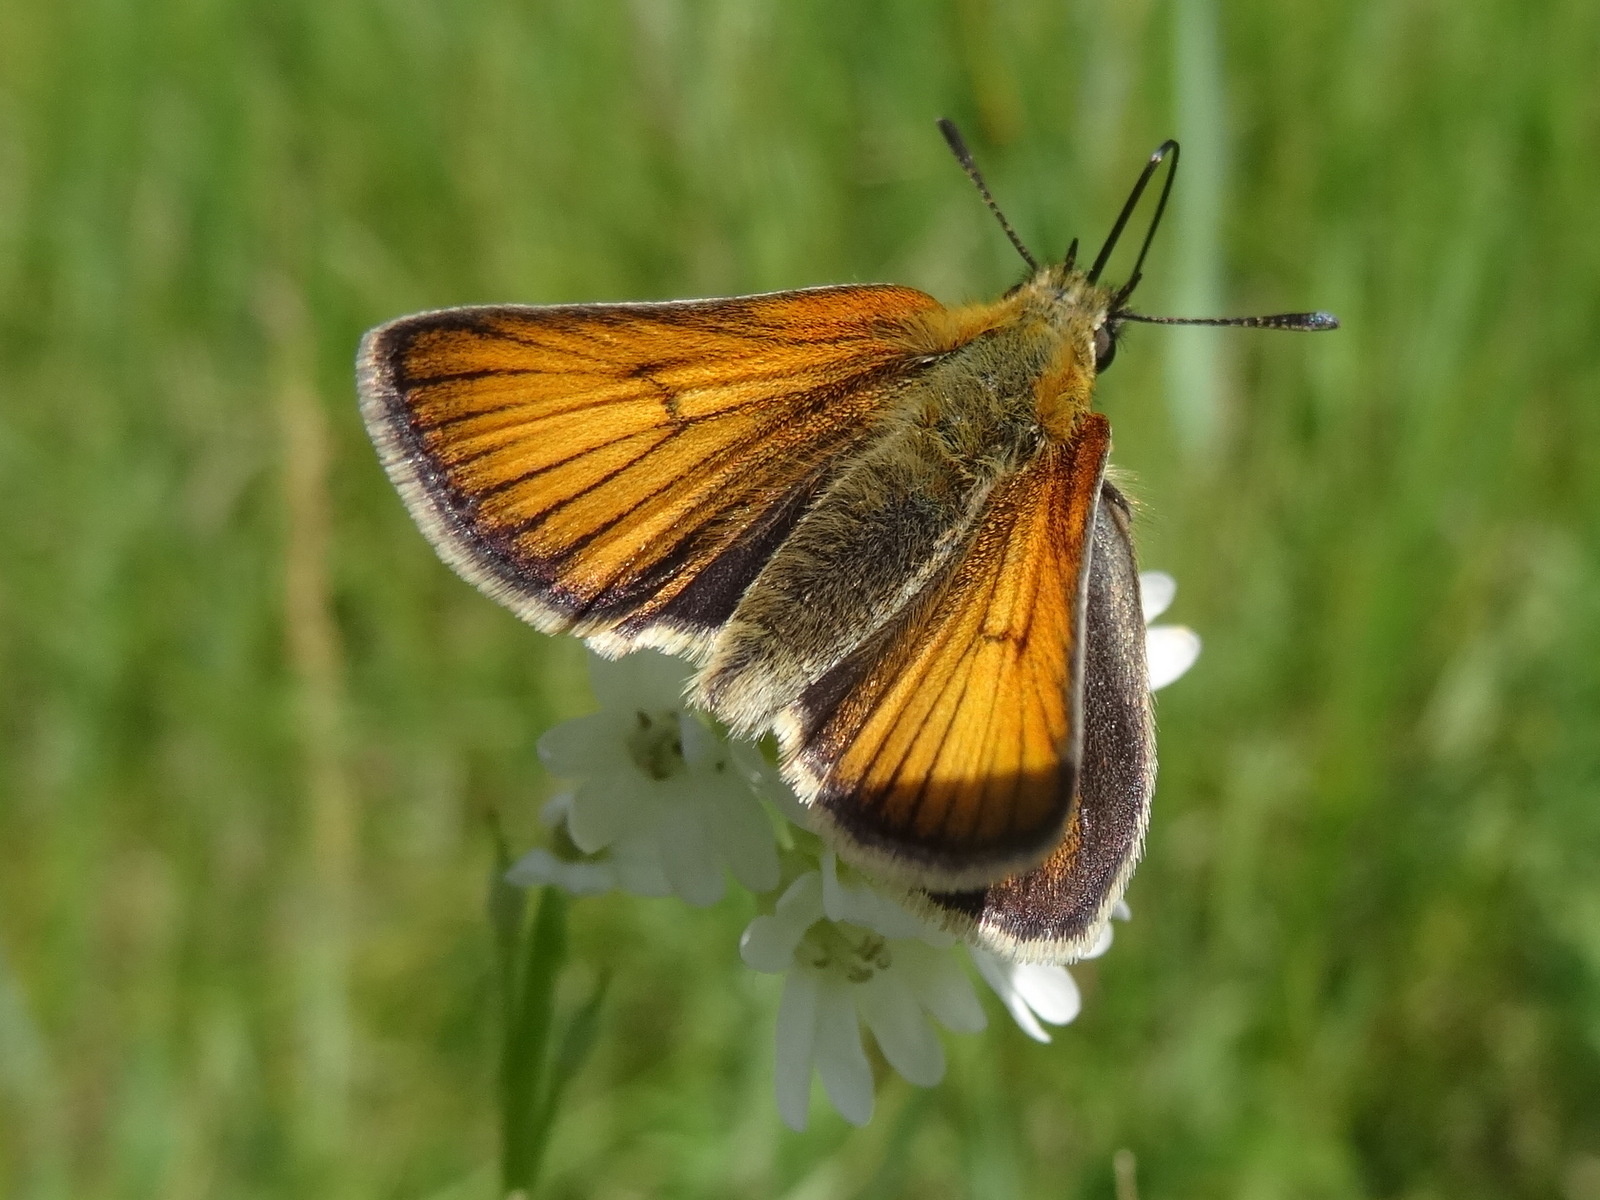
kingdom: Animalia
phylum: Arthropoda
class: Insecta
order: Lepidoptera
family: Hesperiidae
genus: Thymelicus
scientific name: Thymelicus lineola
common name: Essex skipper
